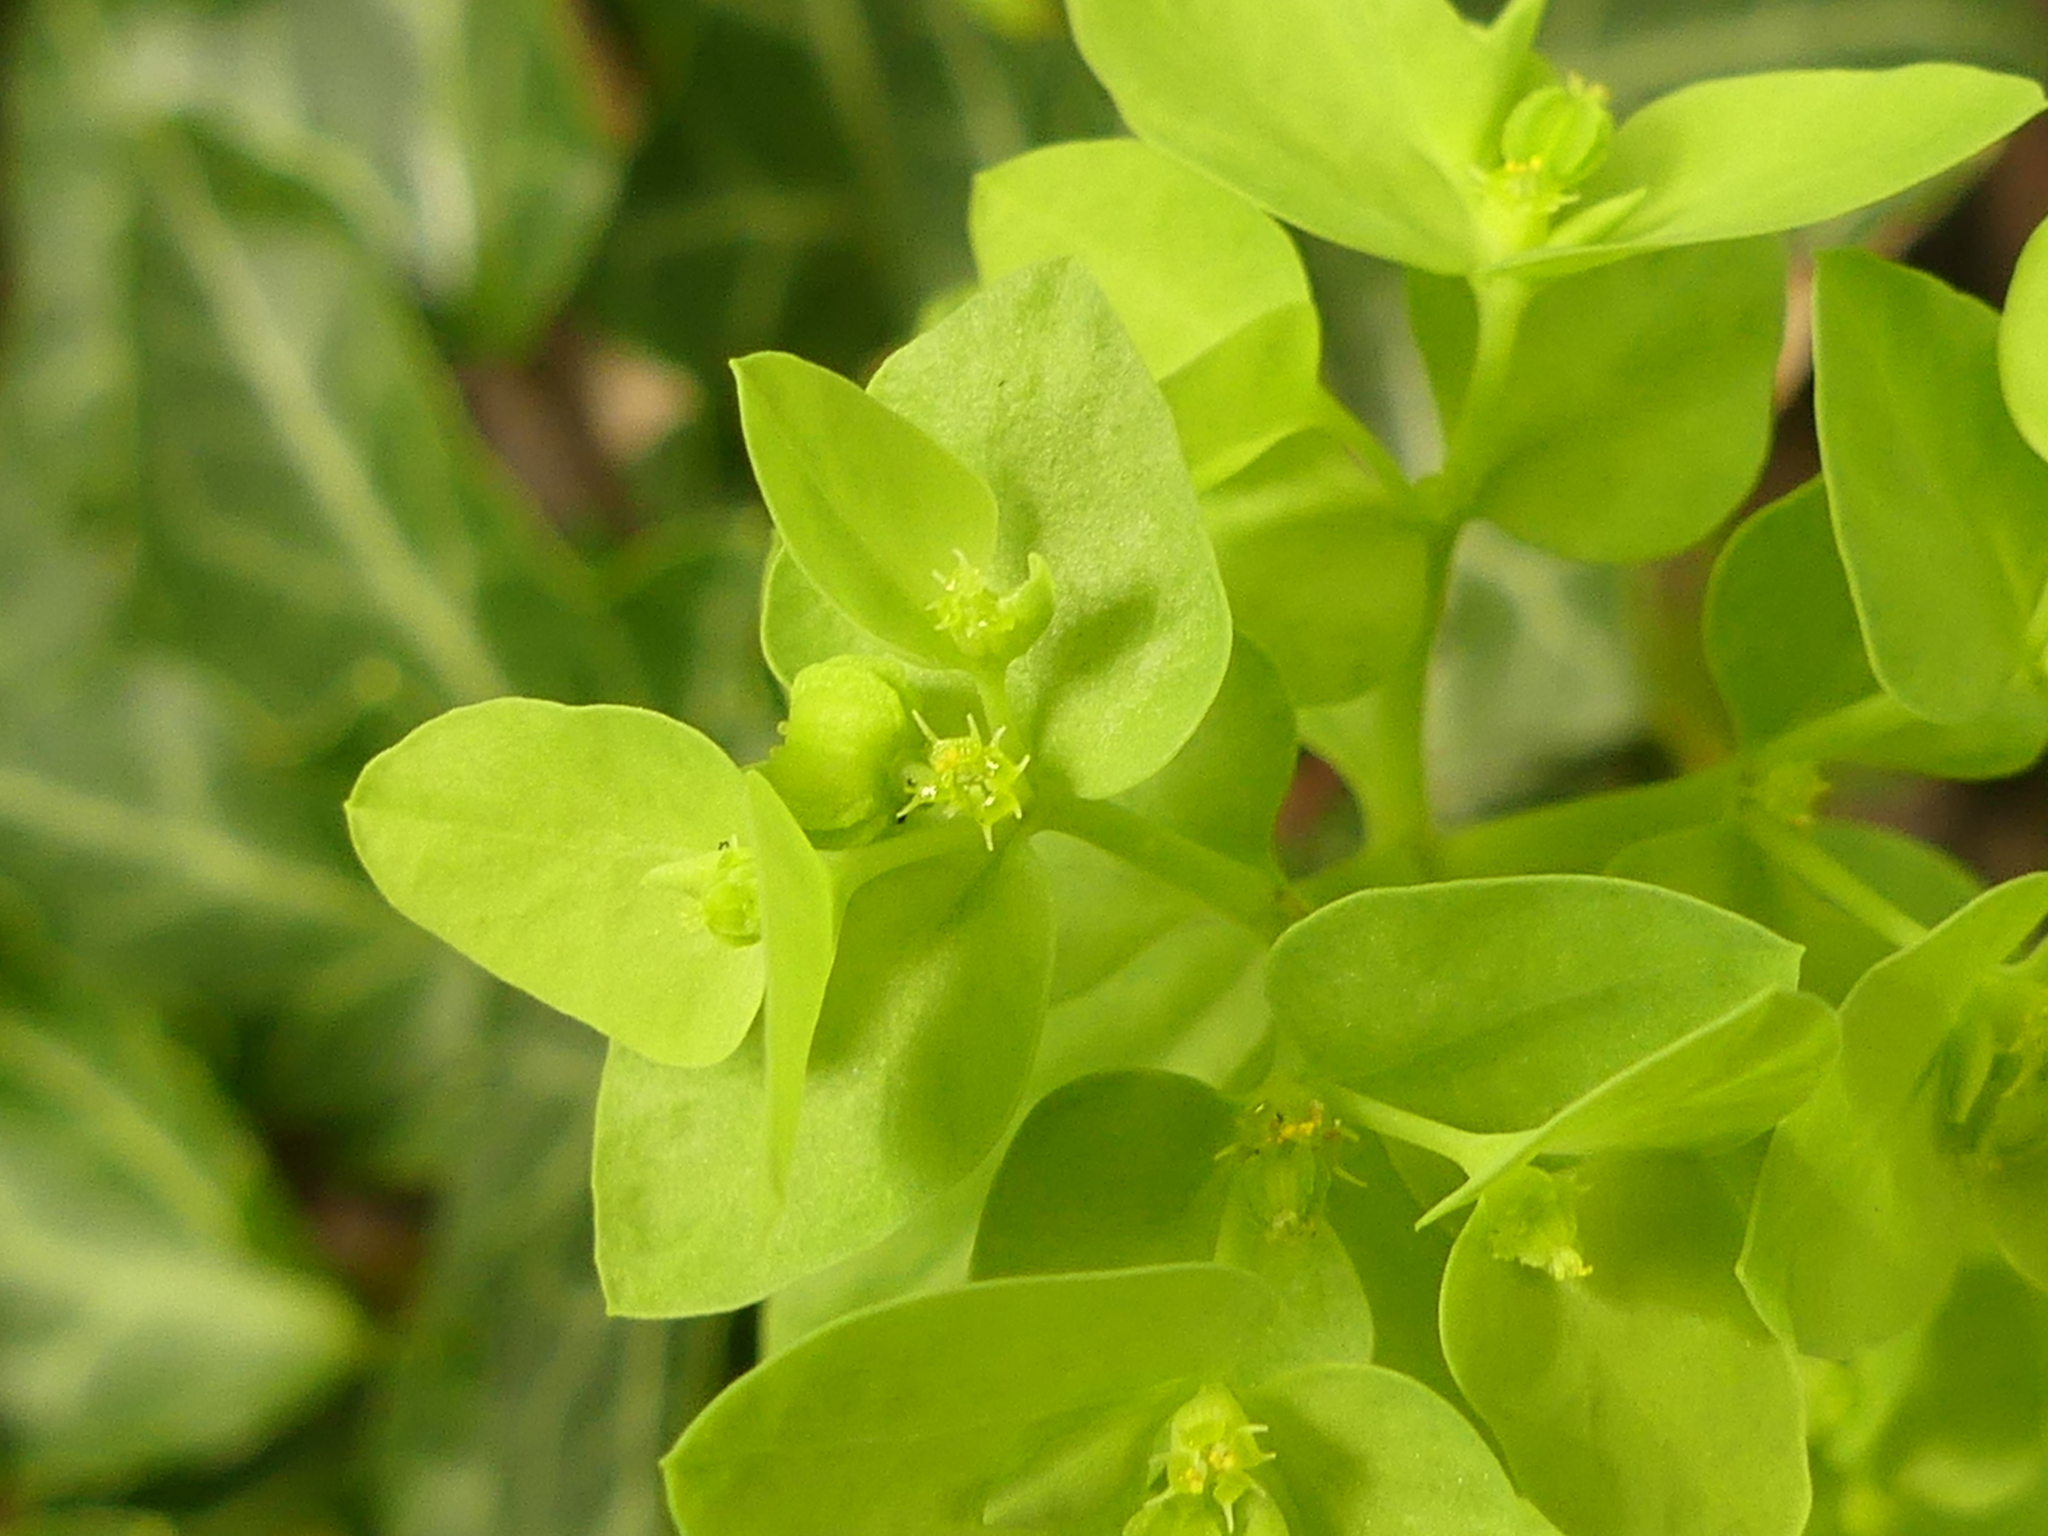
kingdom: Plantae
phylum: Tracheophyta
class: Magnoliopsida
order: Malpighiales
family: Euphorbiaceae
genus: Euphorbia
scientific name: Euphorbia peplus
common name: Petty spurge
